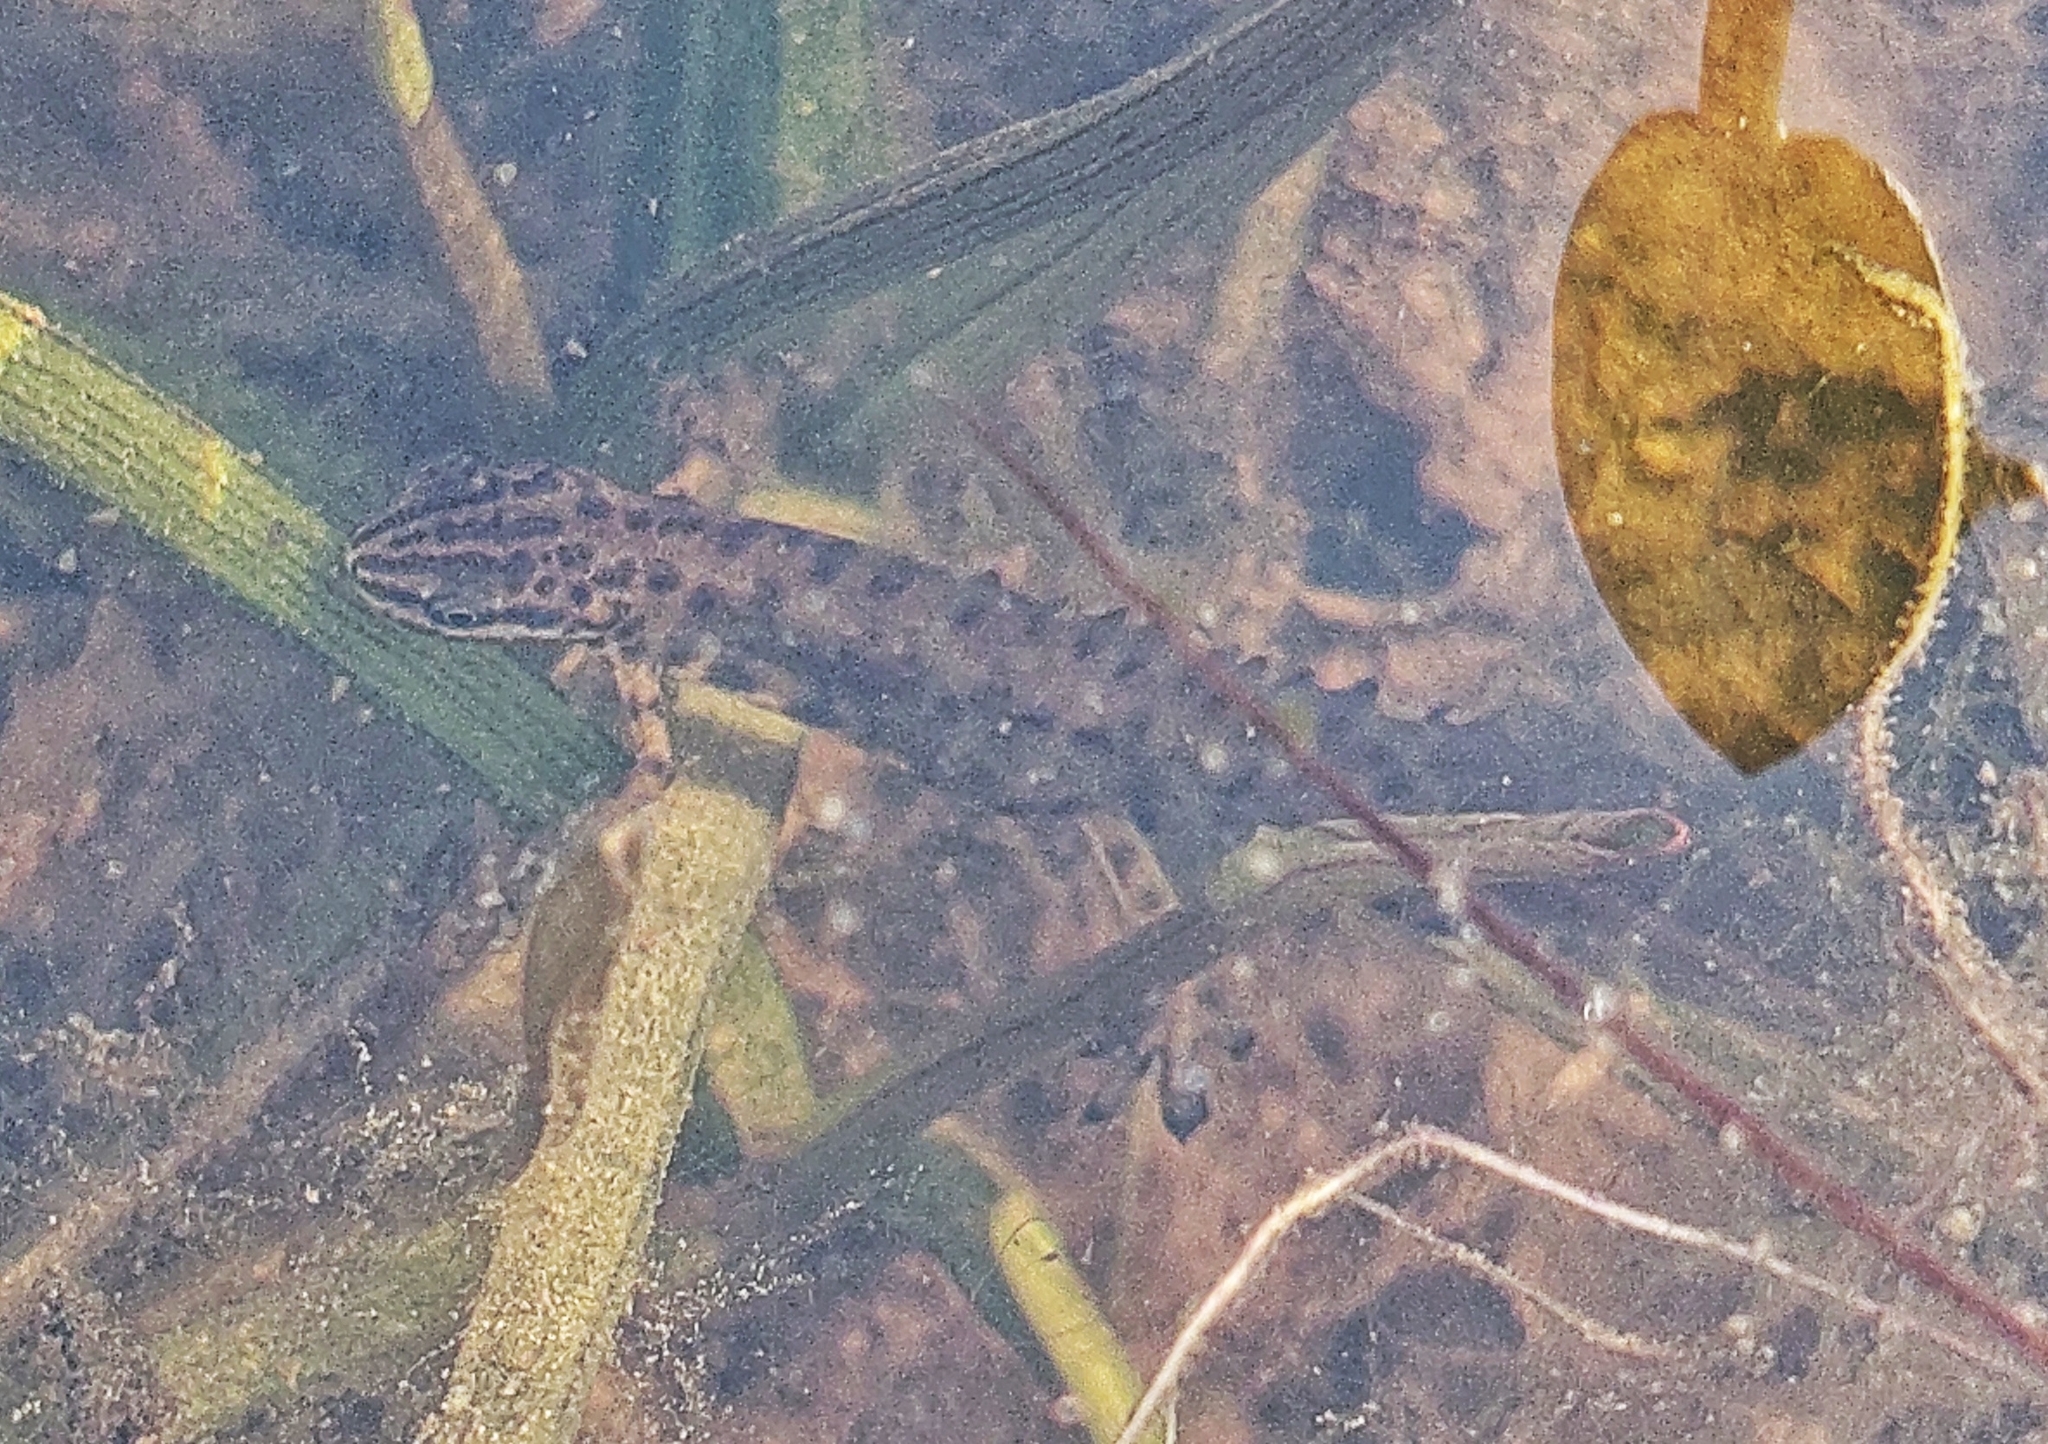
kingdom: Animalia
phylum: Chordata
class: Amphibia
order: Caudata
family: Salamandridae
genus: Lissotriton
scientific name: Lissotriton lantzi
